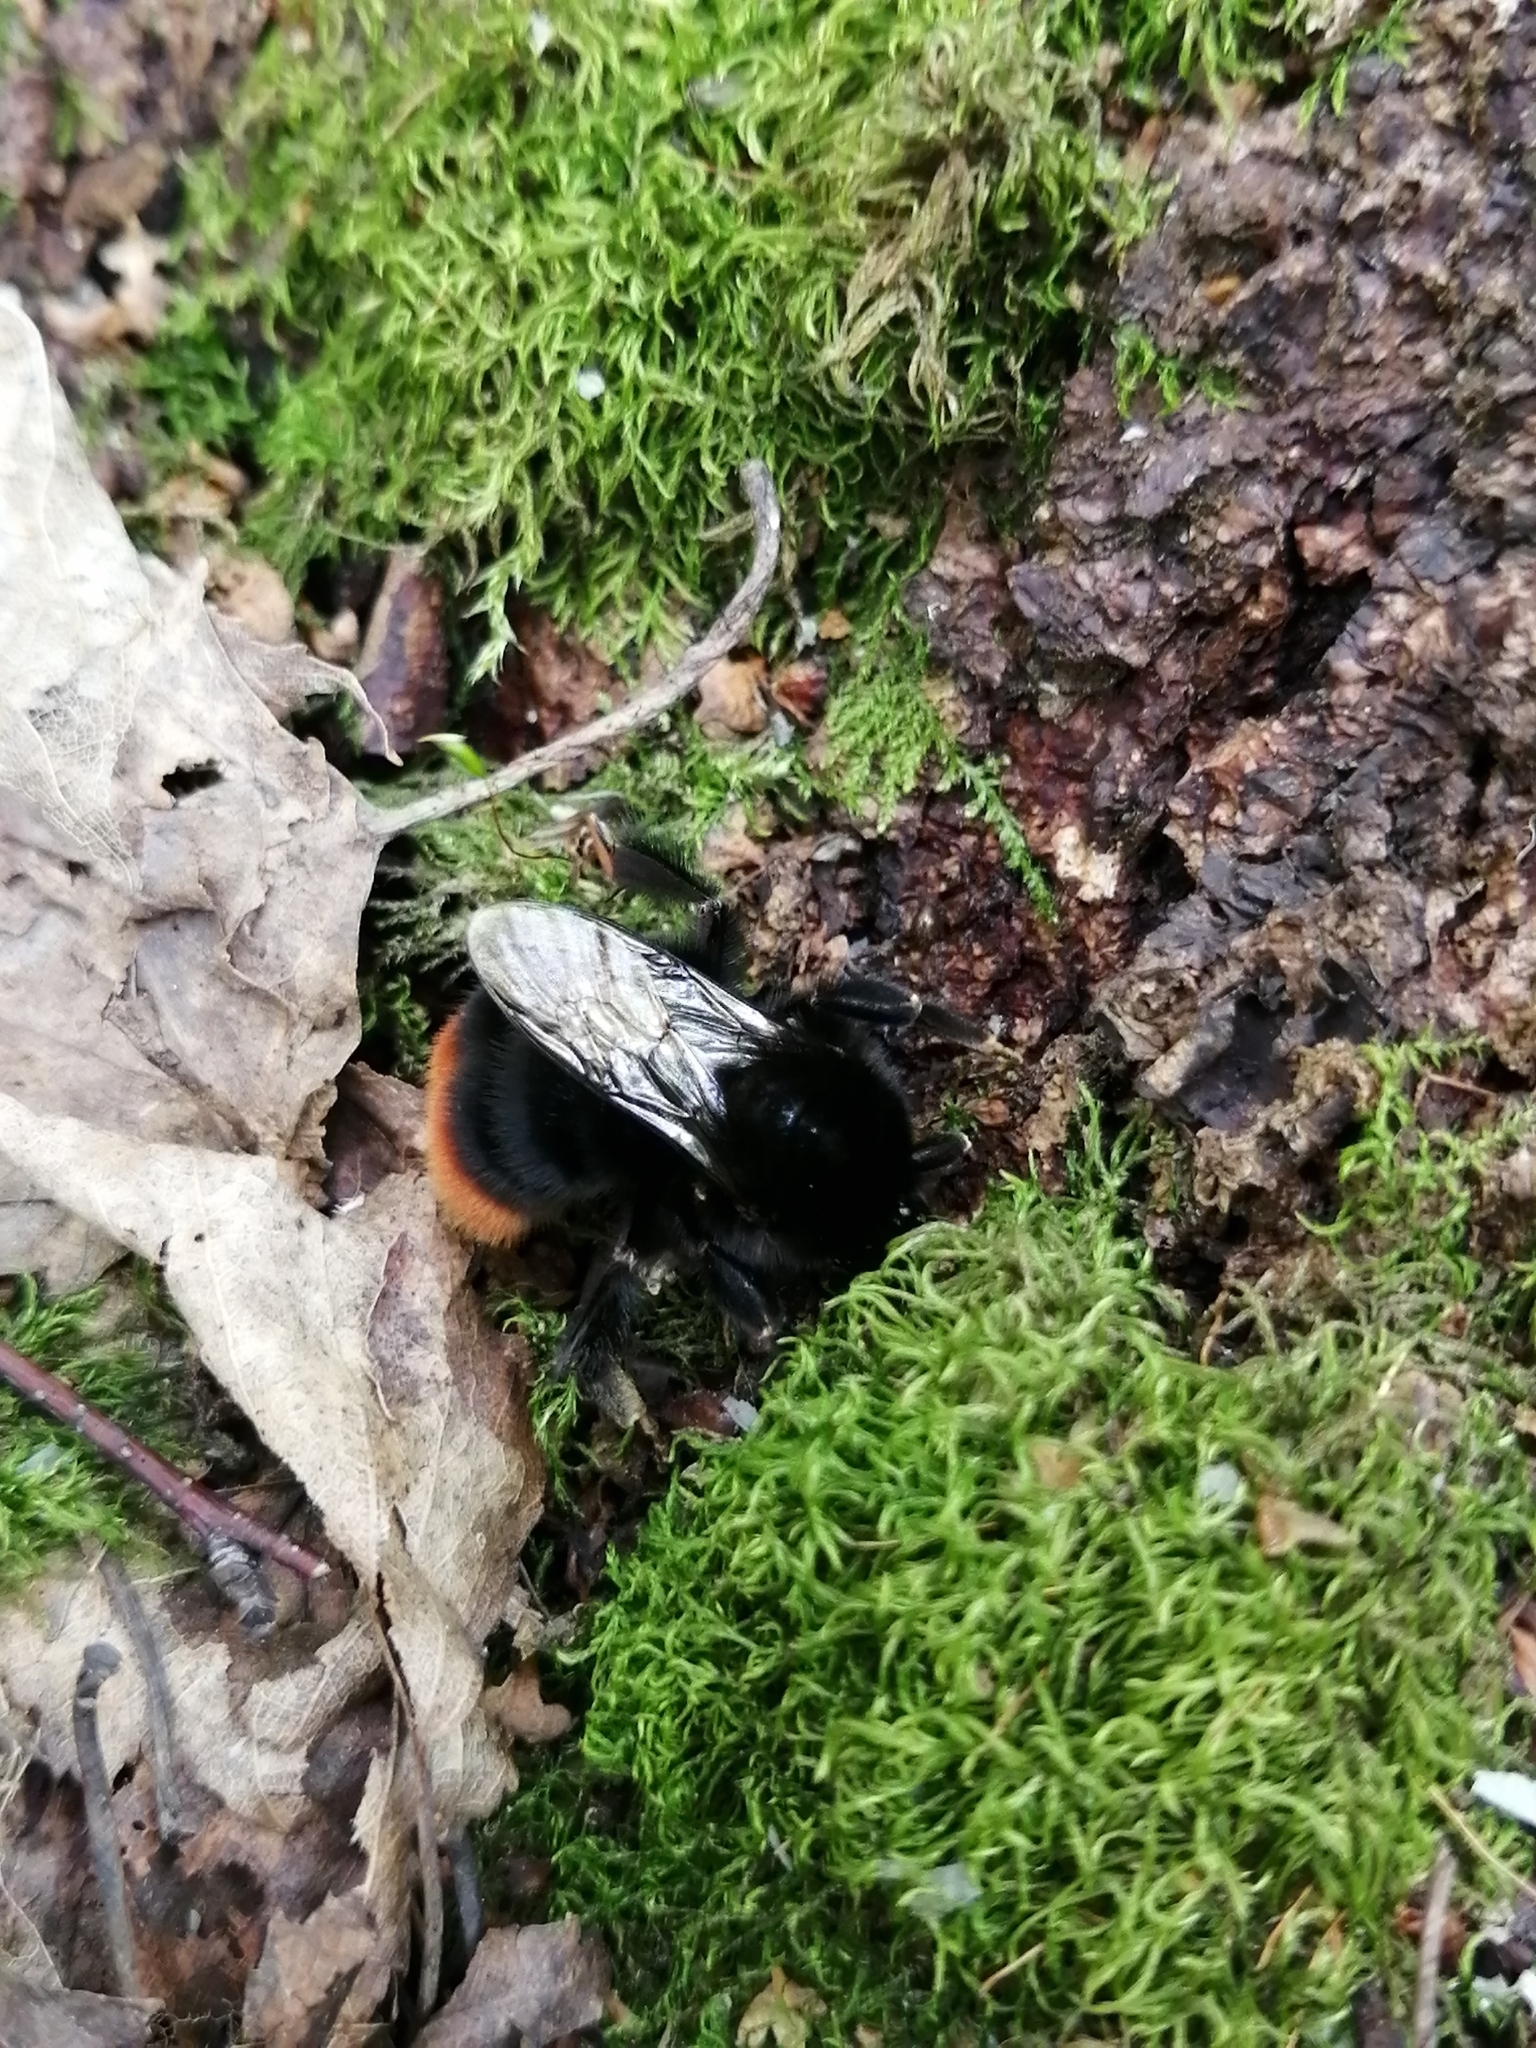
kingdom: Animalia
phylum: Arthropoda
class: Insecta
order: Hymenoptera
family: Apidae
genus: Bombus
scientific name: Bombus lapidarius
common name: Large red-tailed humble-bee
